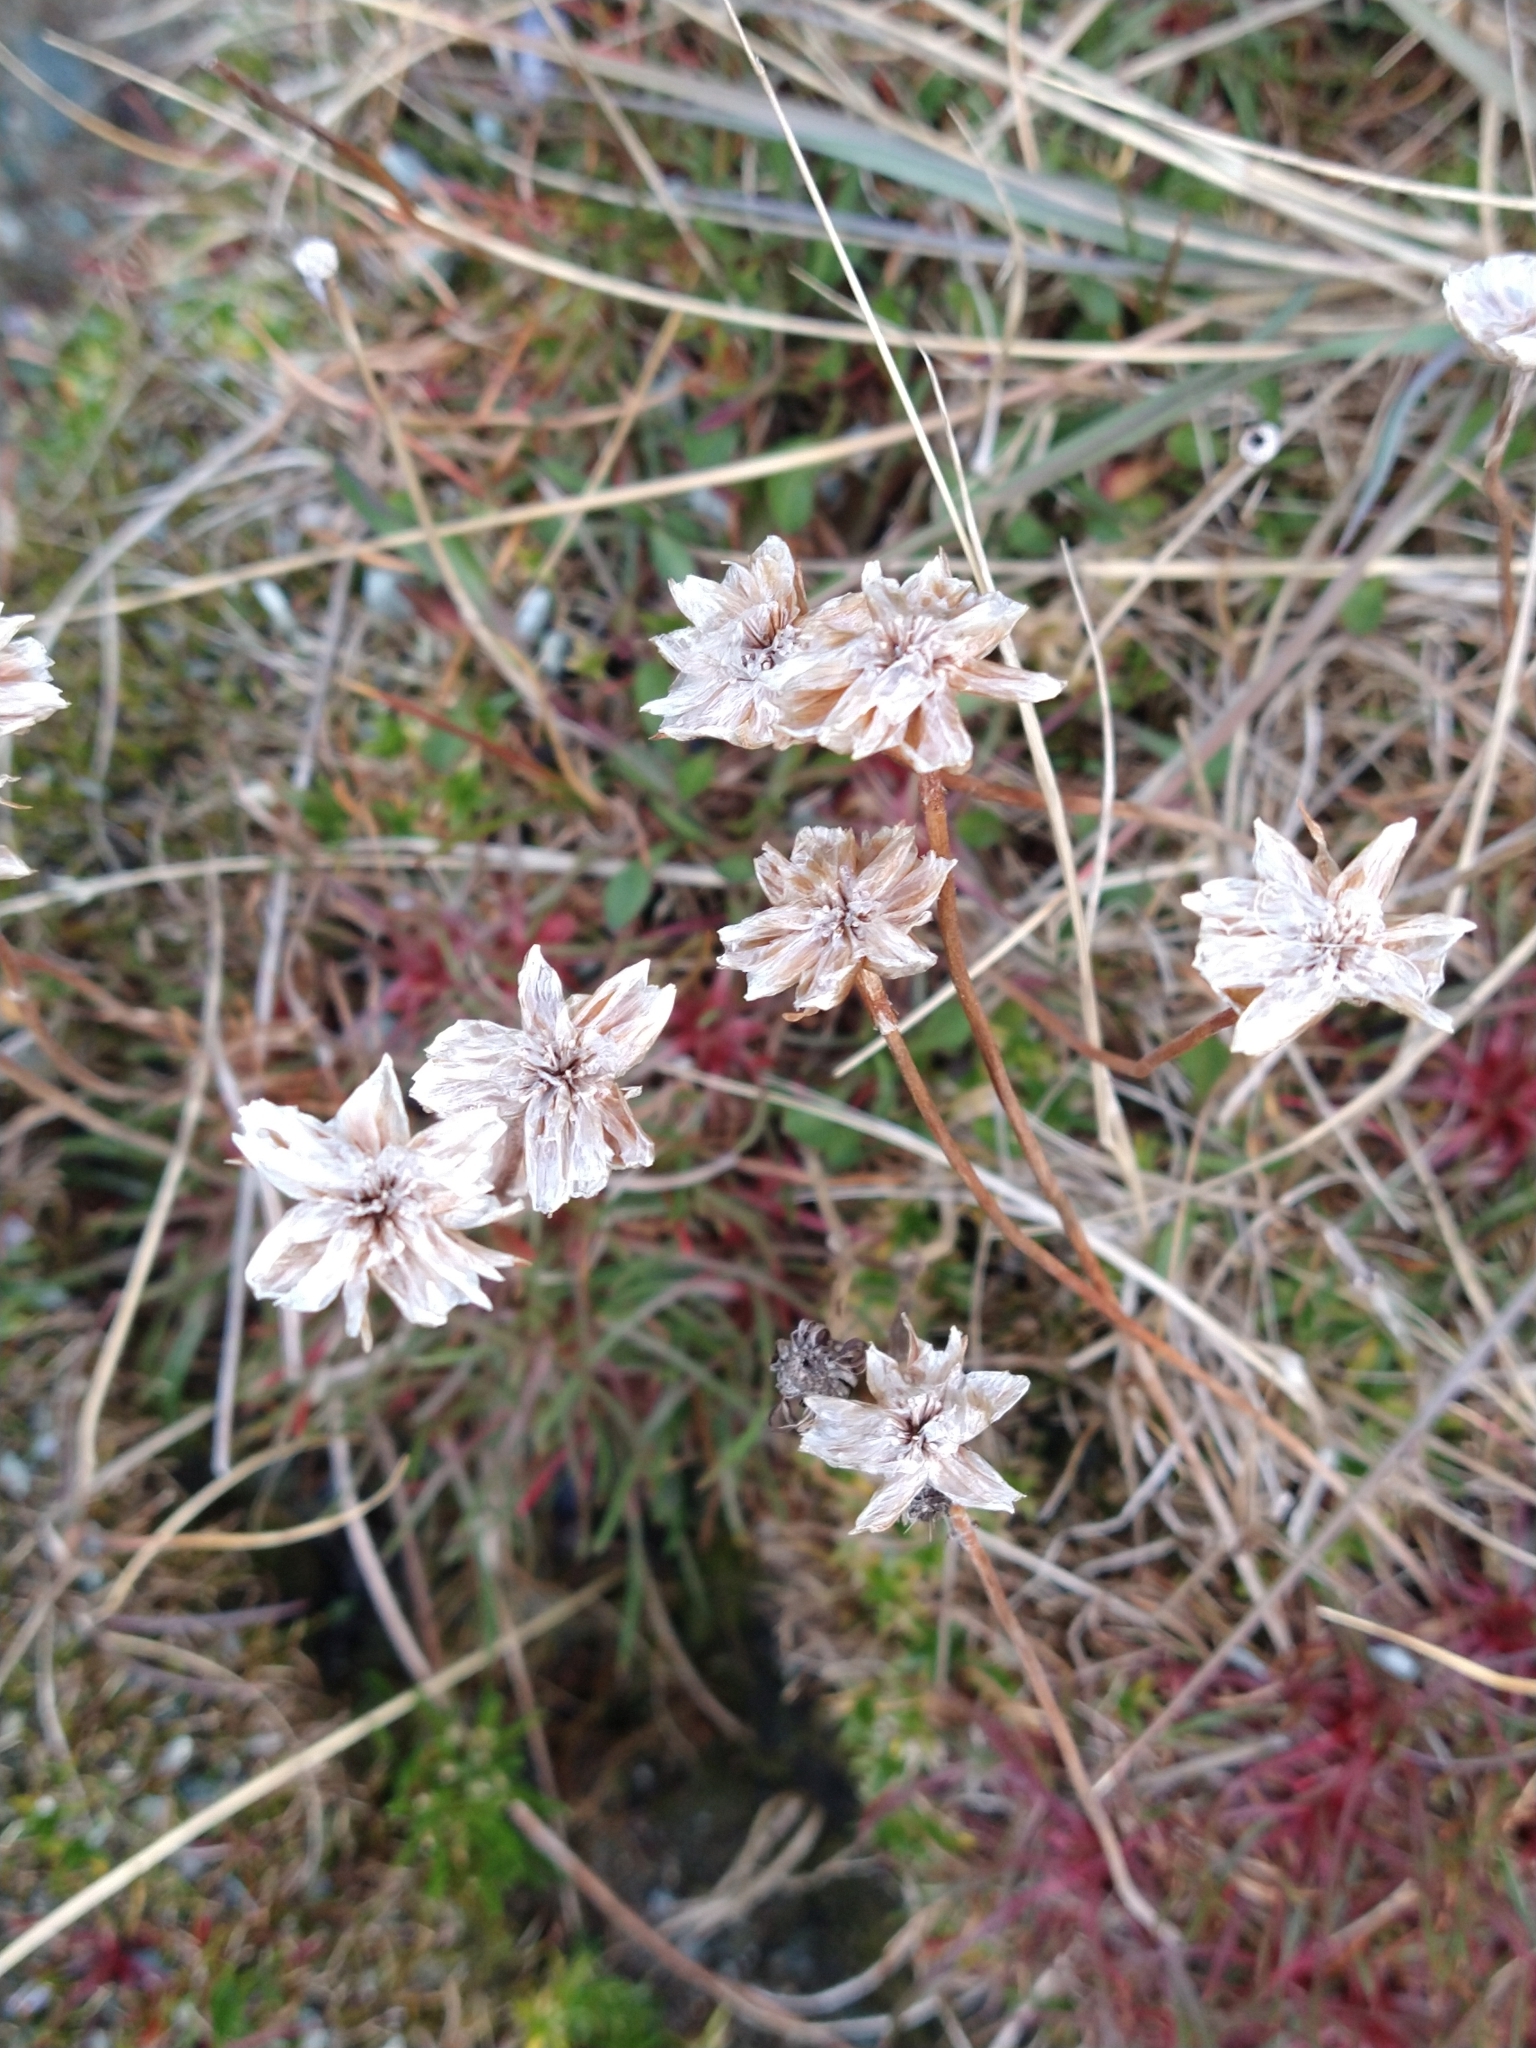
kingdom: Plantae
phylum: Tracheophyta
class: Magnoliopsida
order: Caryophyllales
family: Plumbaginaceae
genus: Armeria
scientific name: Armeria curvifolia
